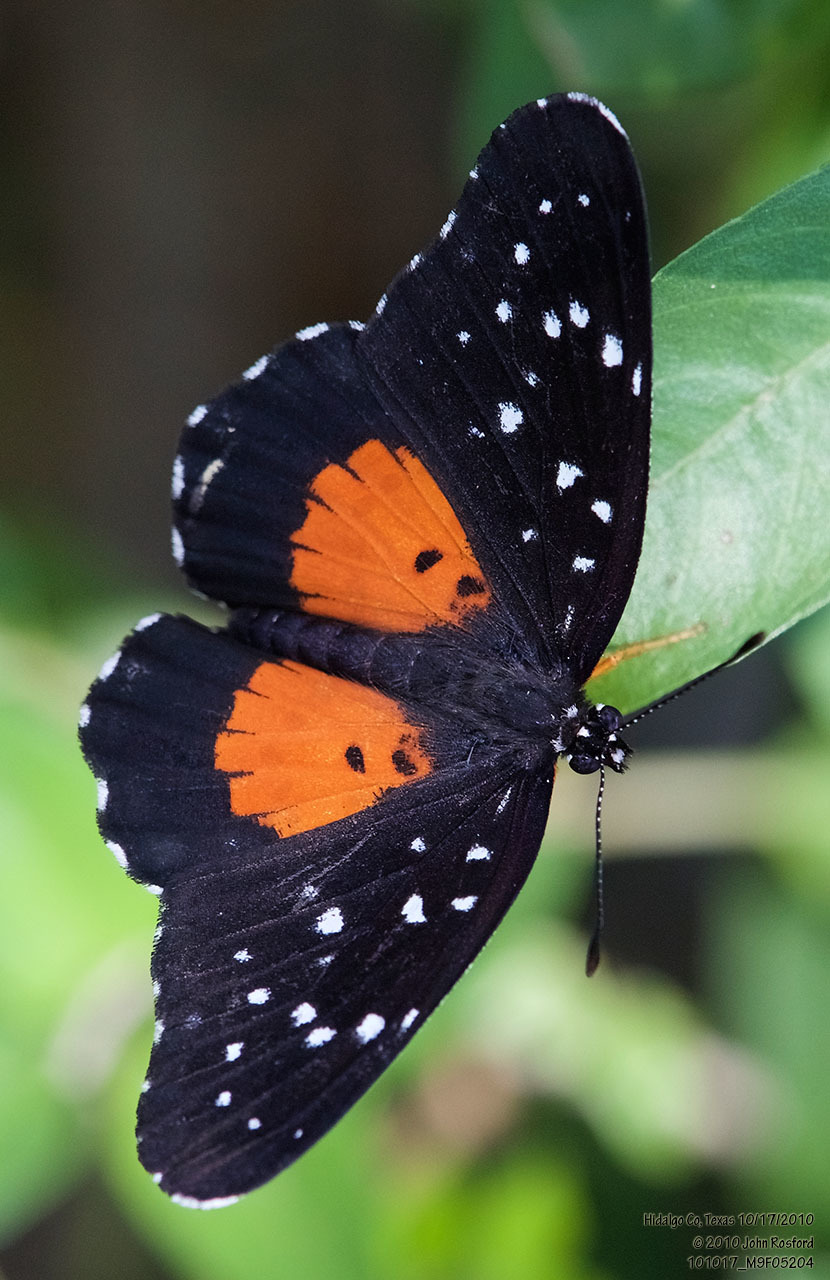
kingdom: Animalia
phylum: Arthropoda
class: Insecta
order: Lepidoptera
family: Nymphalidae
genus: Chlosyne
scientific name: Chlosyne janais
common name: Crimson patch
